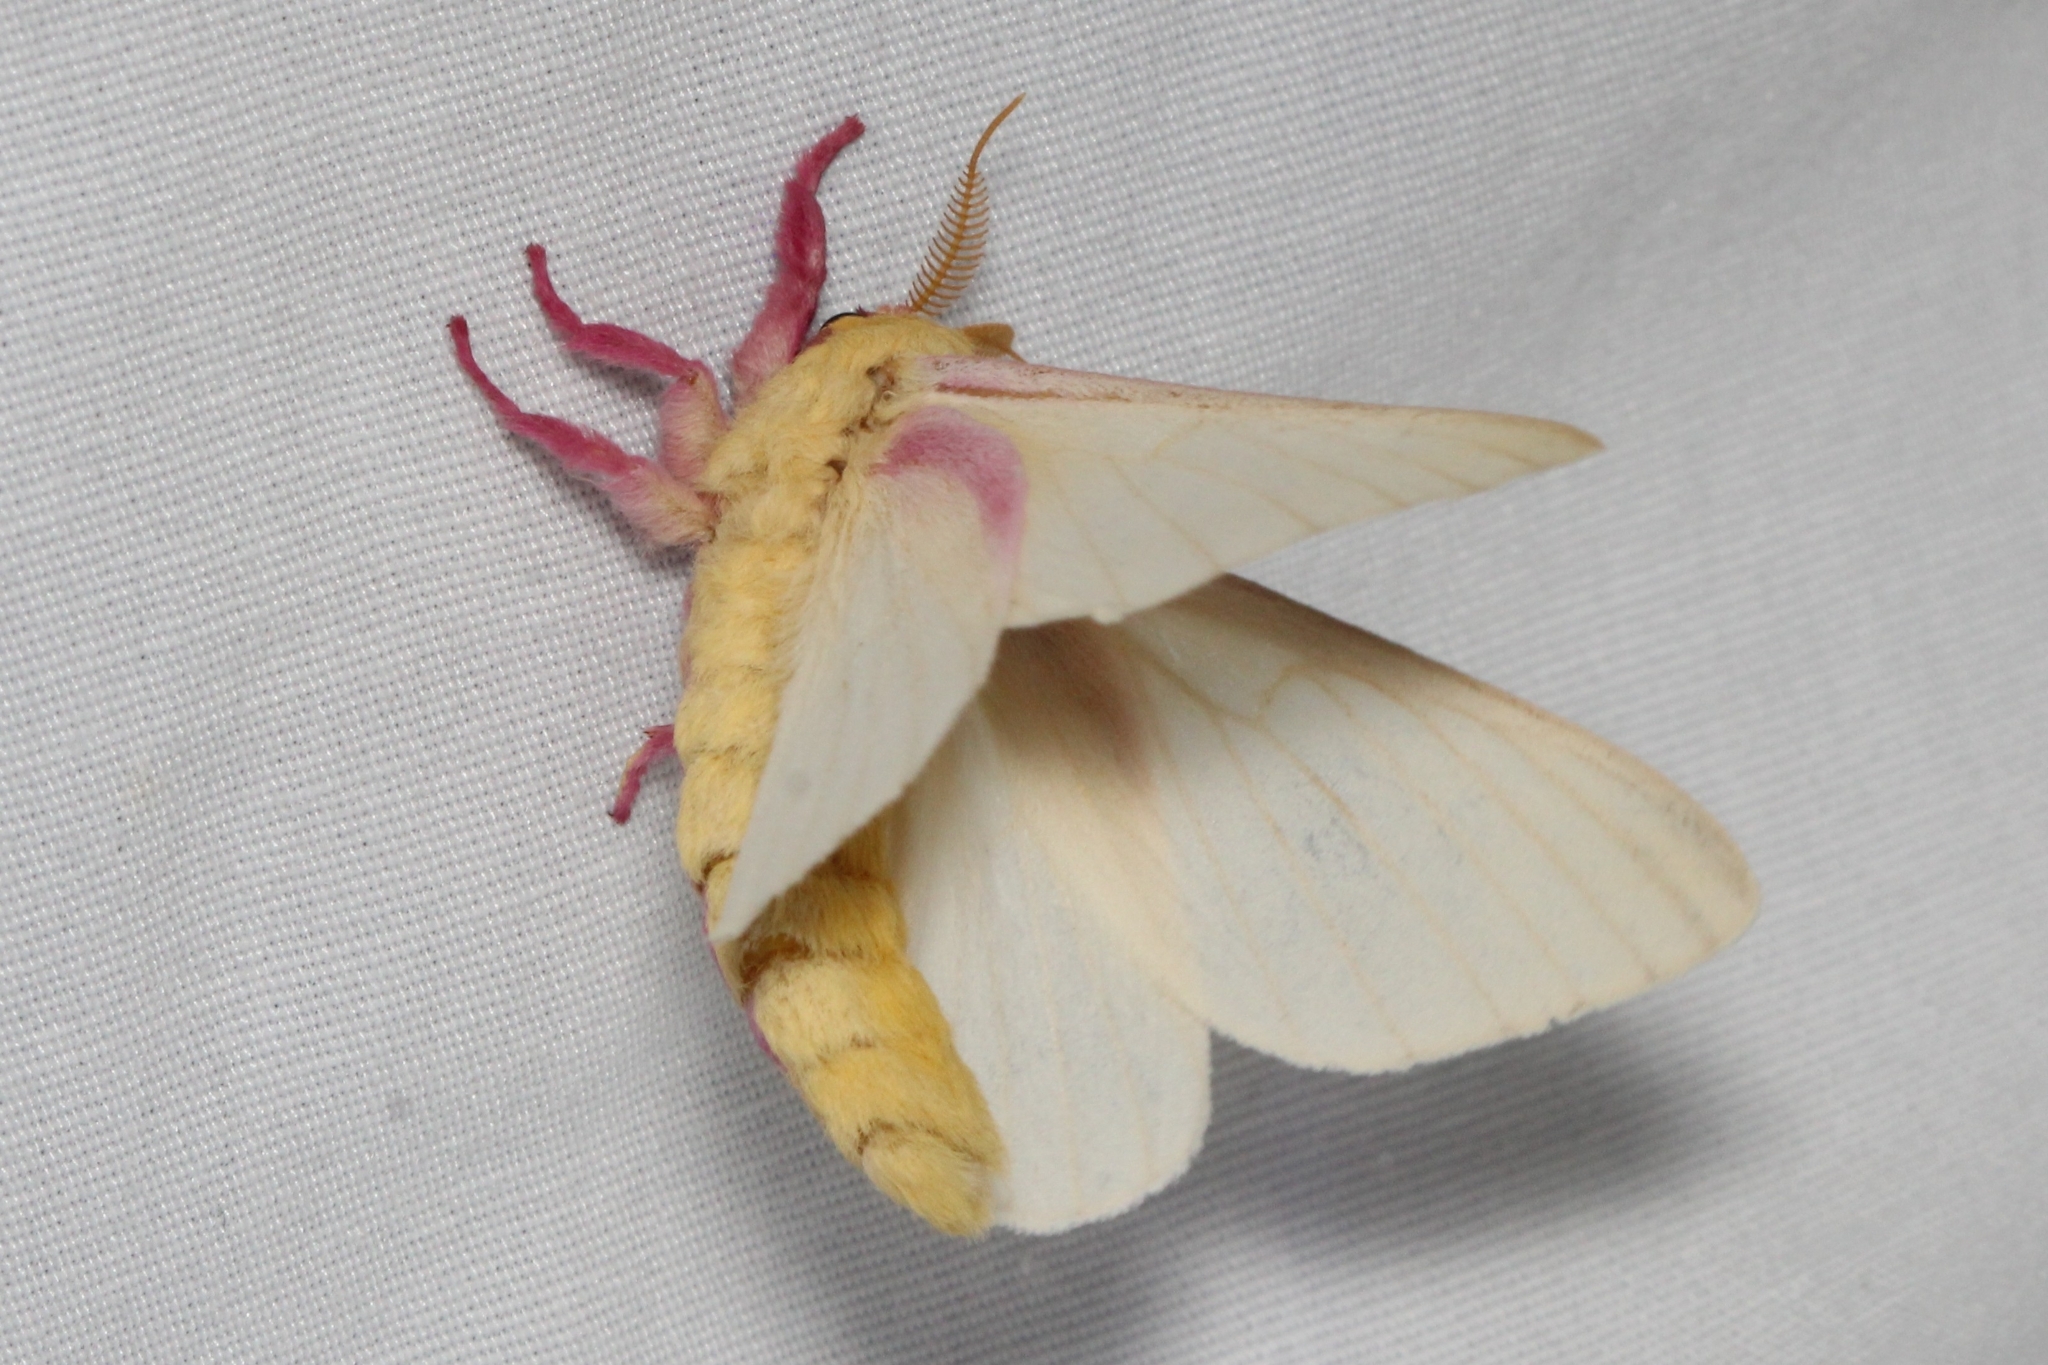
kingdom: Animalia
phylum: Arthropoda
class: Insecta
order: Lepidoptera
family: Saturniidae
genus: Dryocampa
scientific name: Dryocampa rubicunda
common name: Rosy maple moth
